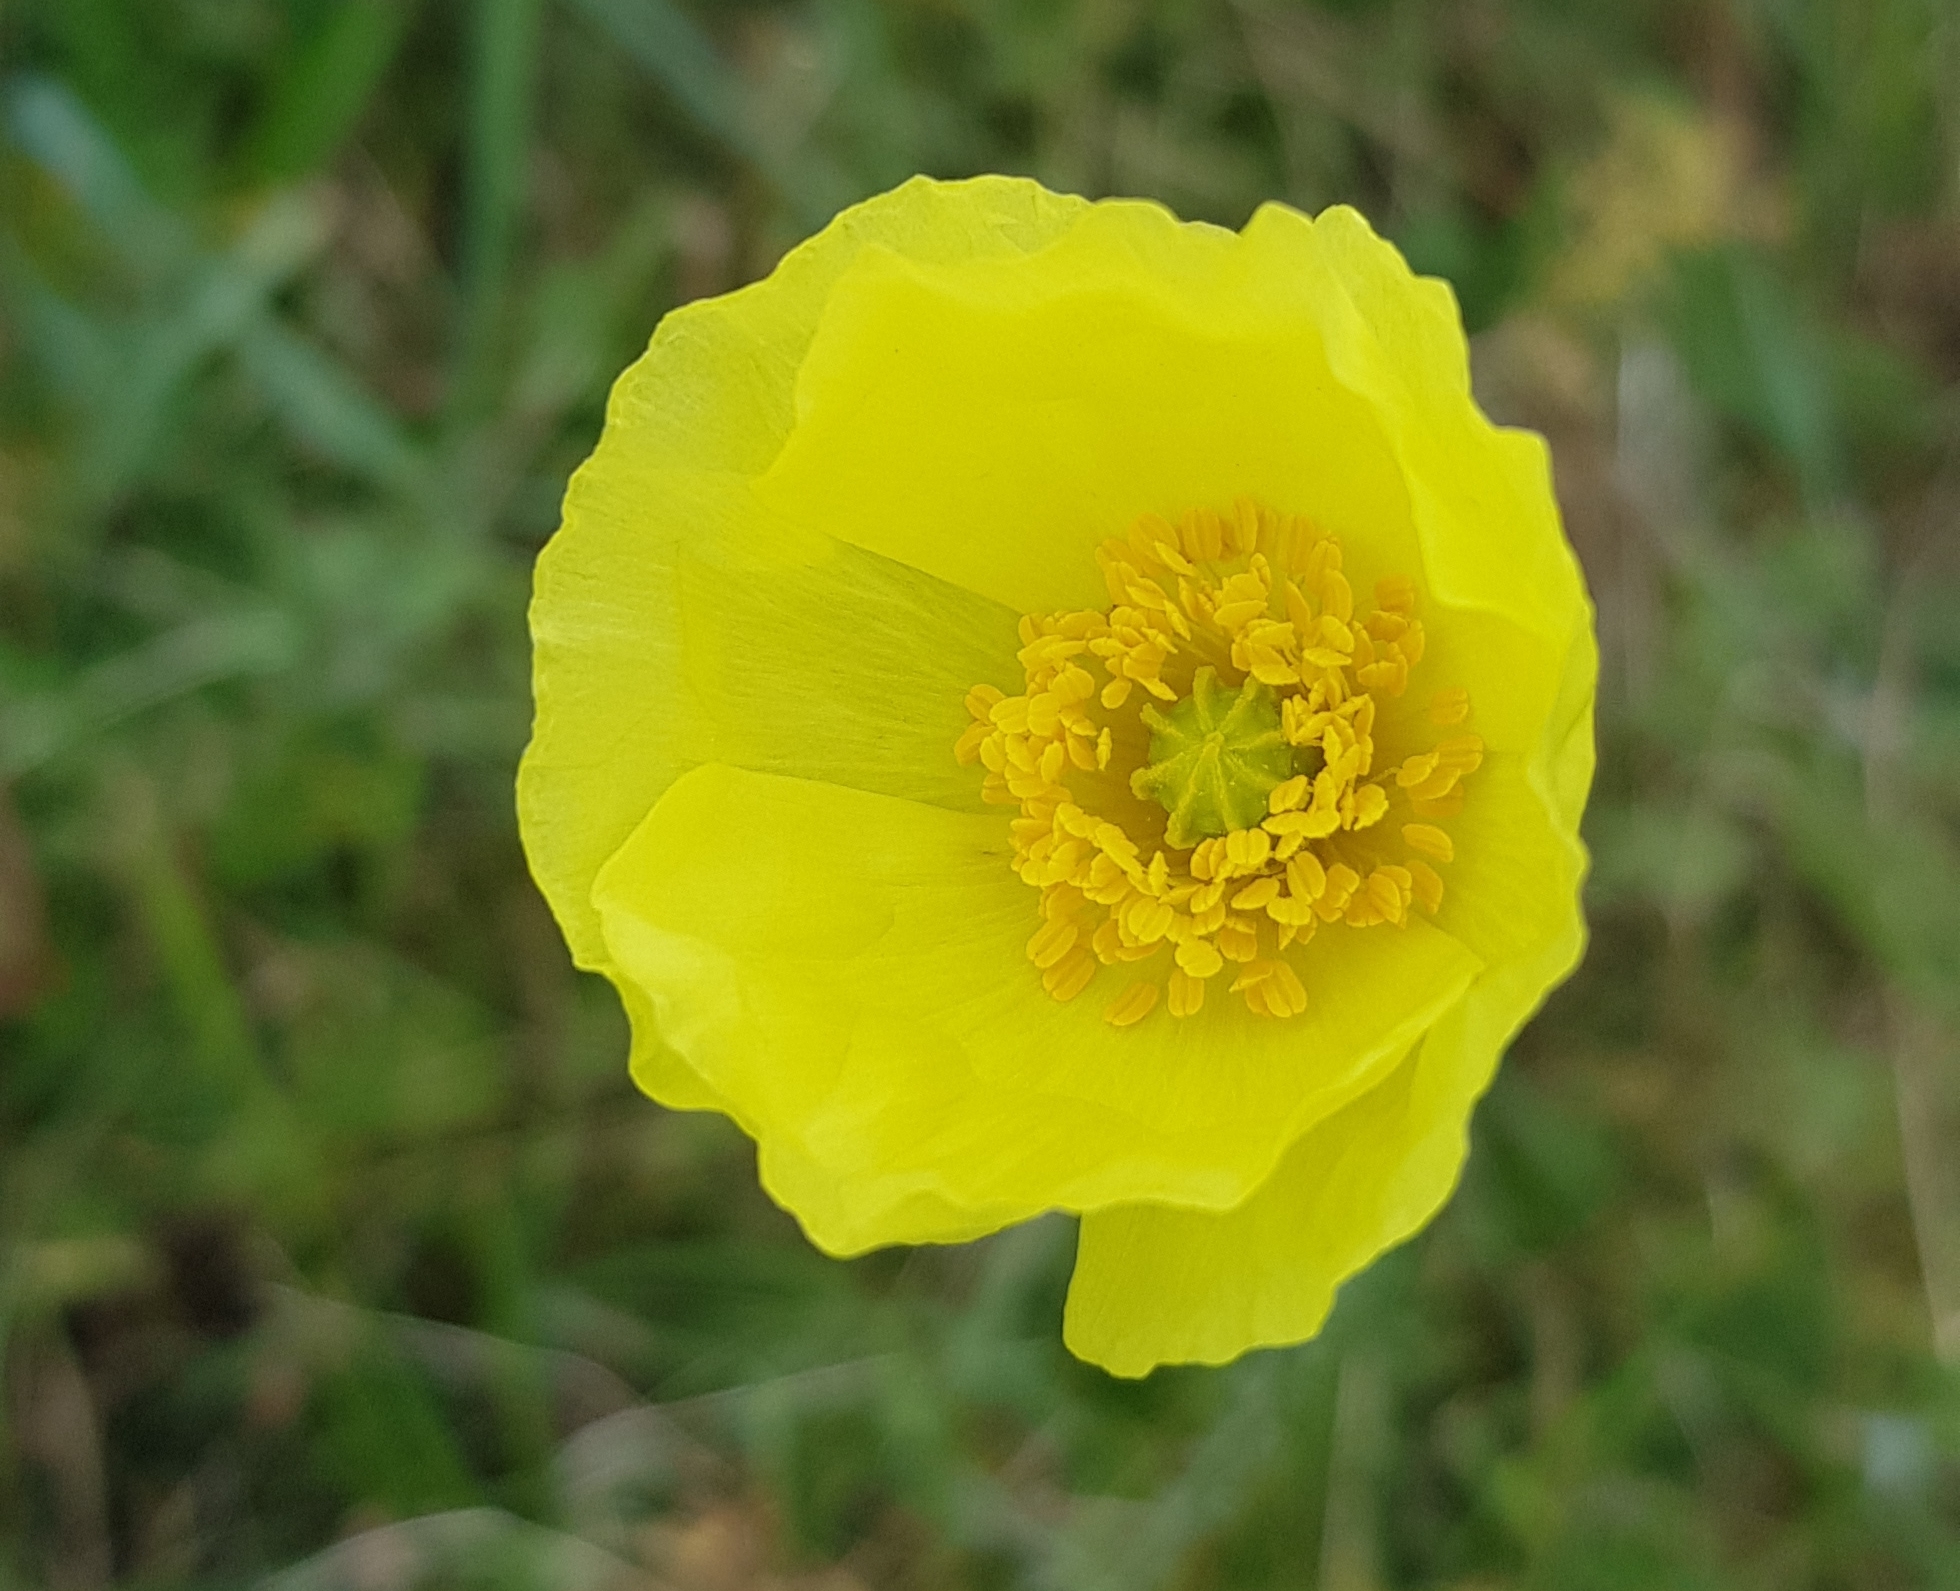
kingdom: Plantae
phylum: Tracheophyta
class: Magnoliopsida
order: Ranunculales
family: Papaveraceae
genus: Papaver
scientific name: Papaver nudicaule
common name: Arctic poppy
